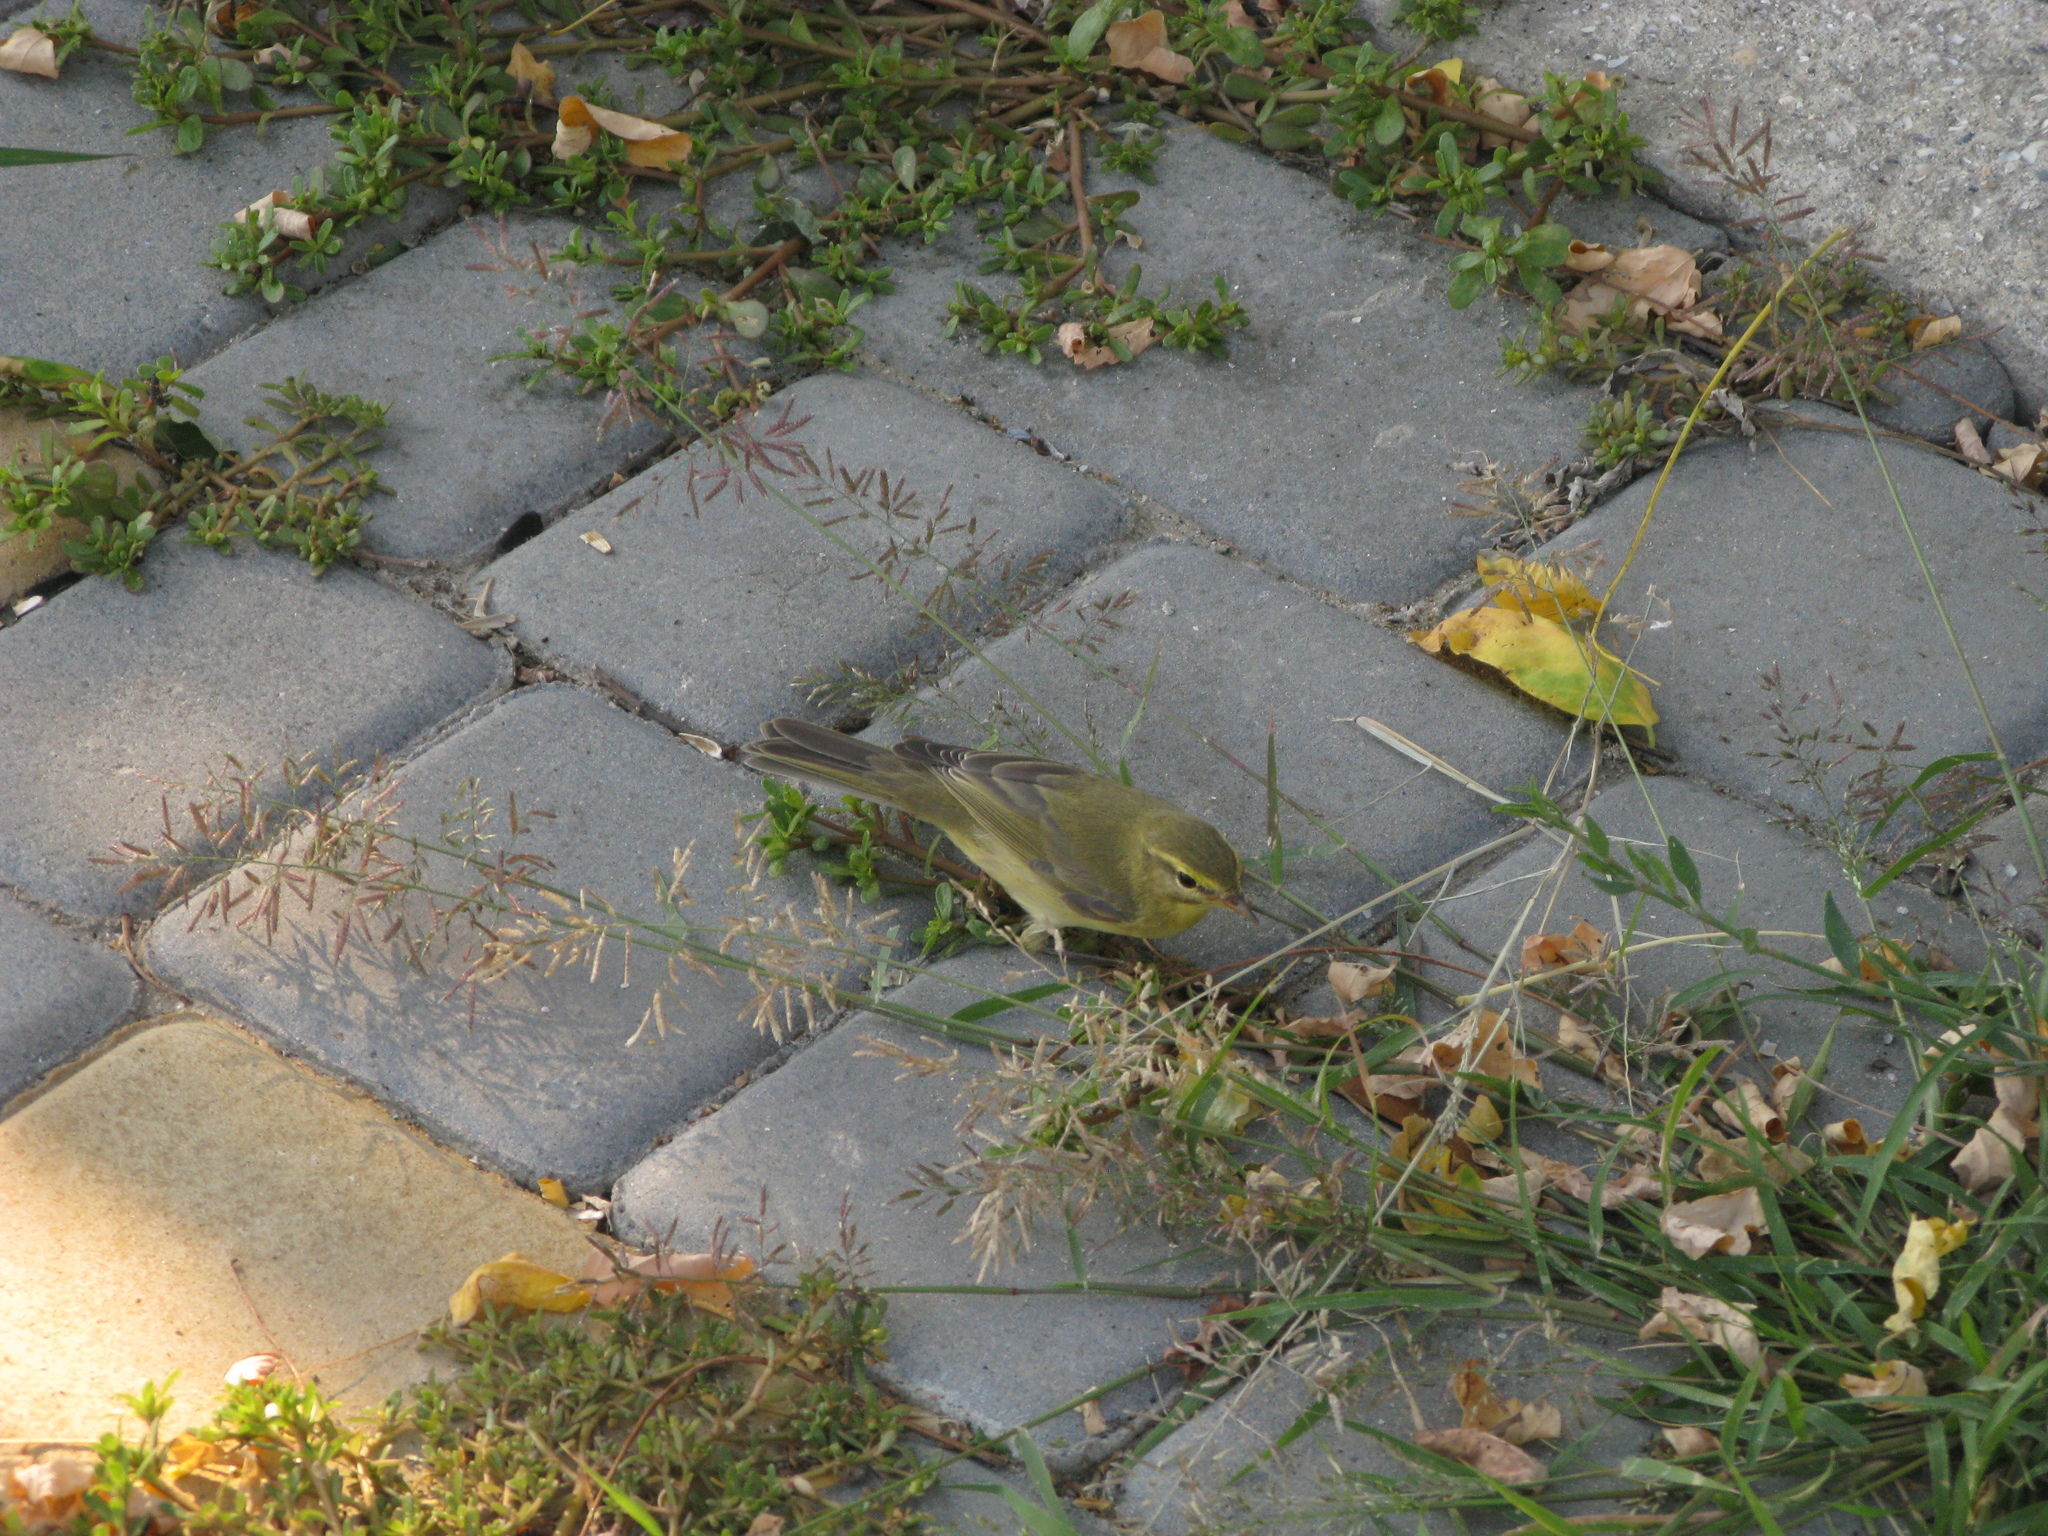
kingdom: Animalia
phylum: Chordata
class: Aves
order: Passeriformes
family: Phylloscopidae
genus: Phylloscopus
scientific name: Phylloscopus trochilus
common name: Willow warbler
